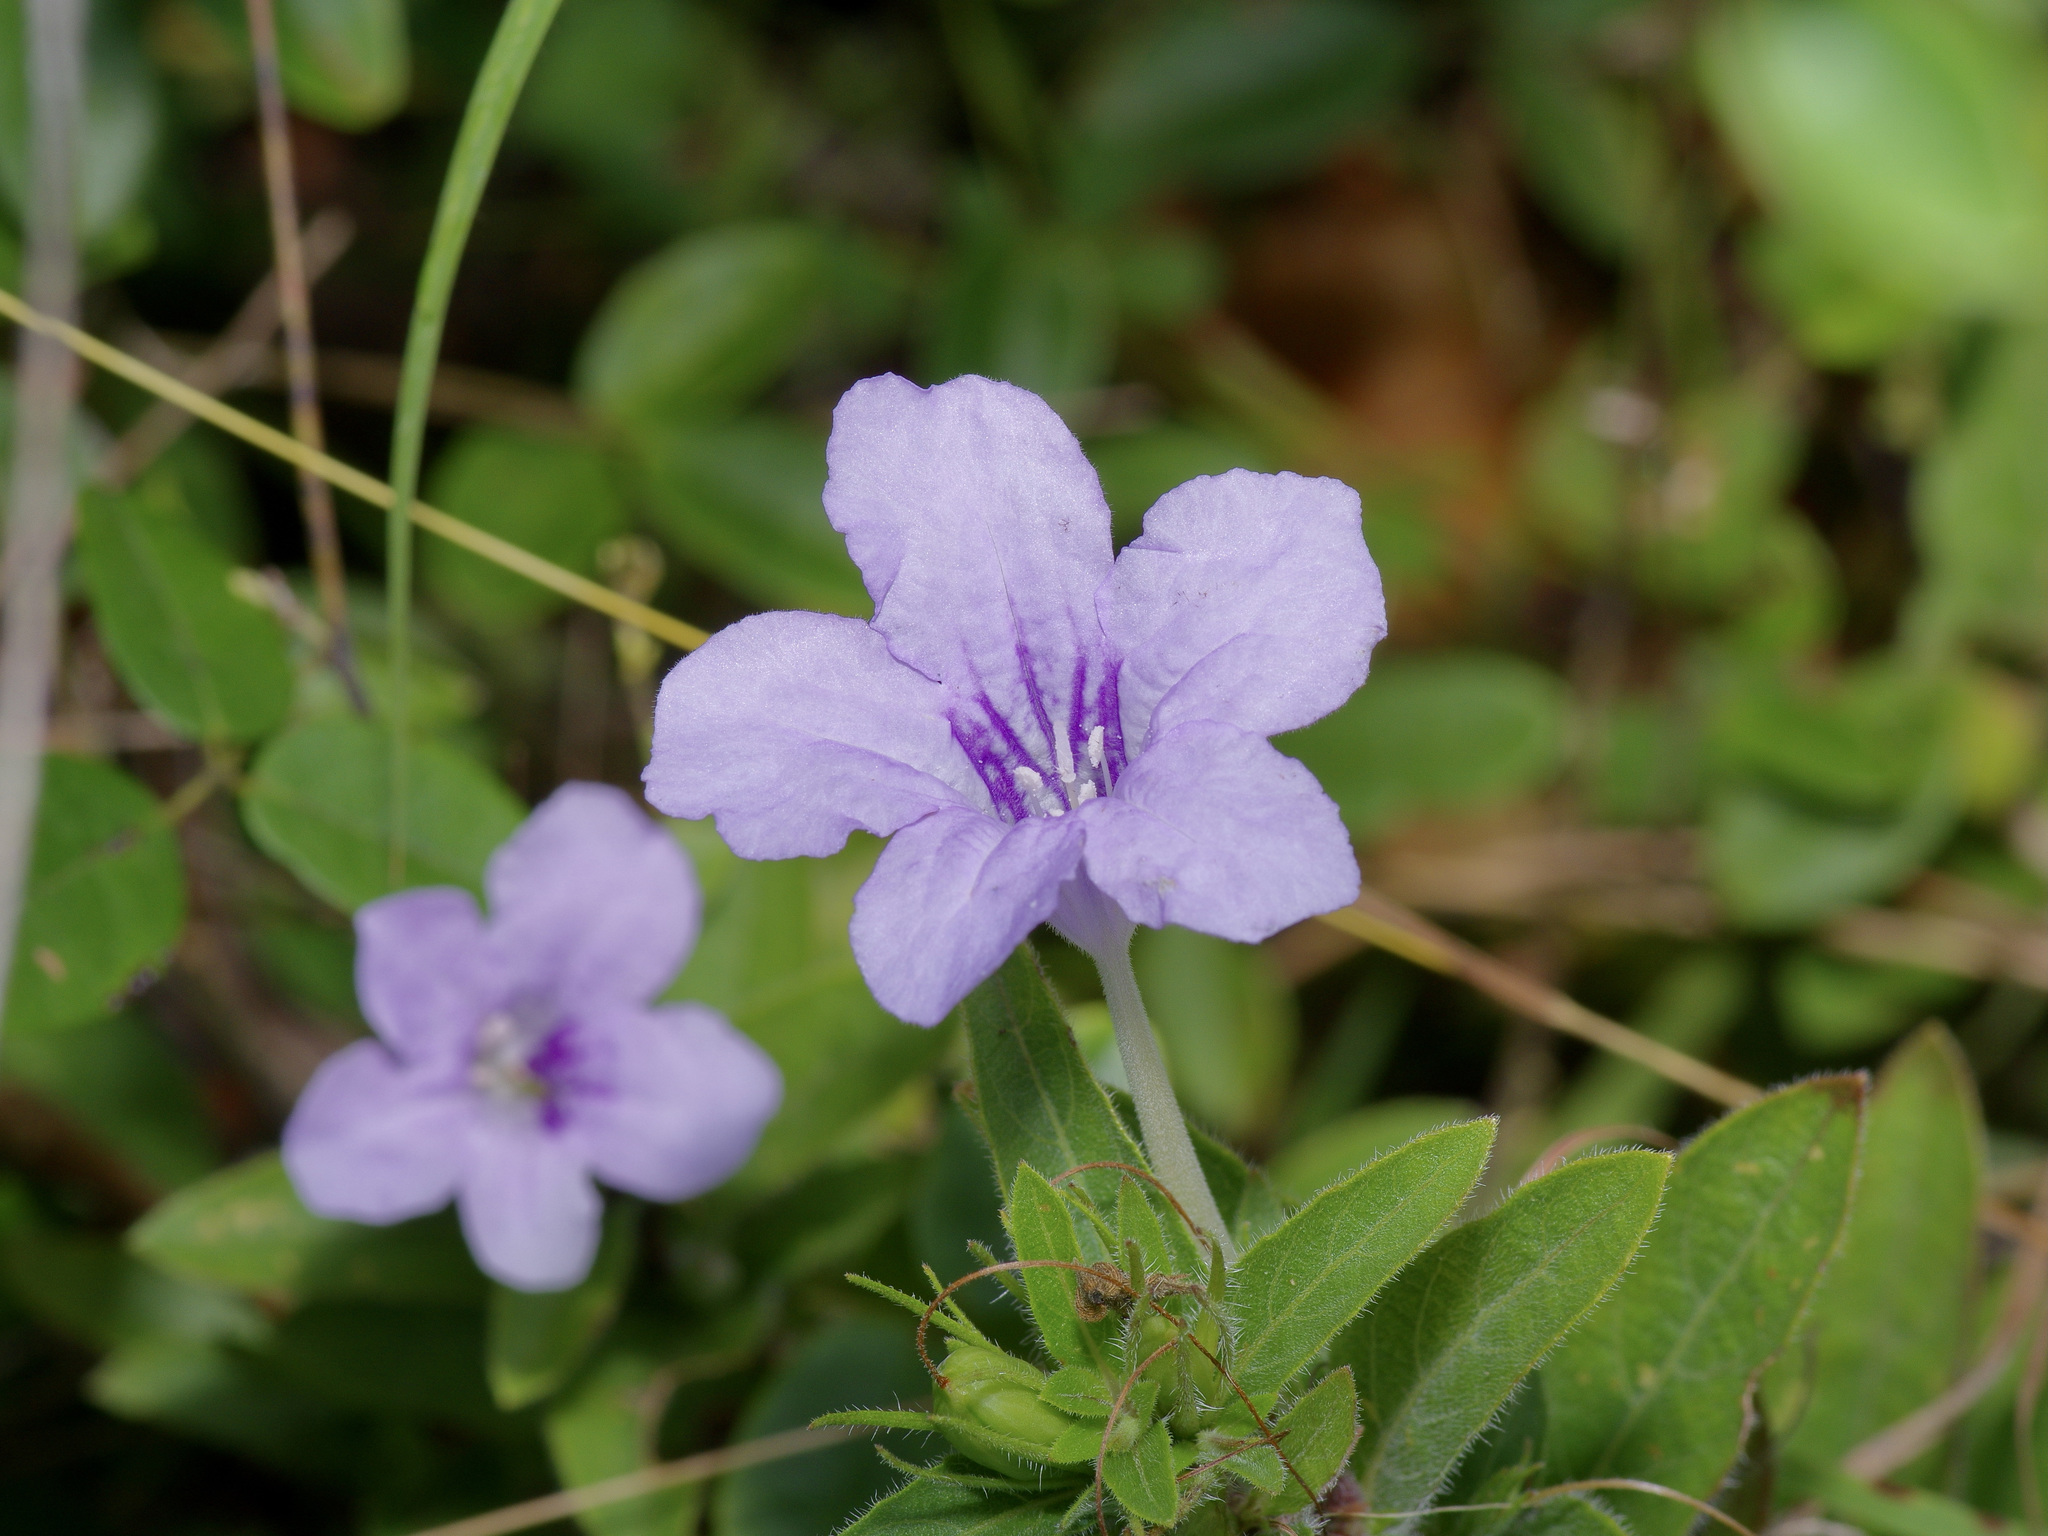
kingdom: Plantae
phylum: Tracheophyta
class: Magnoliopsida
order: Lamiales
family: Acanthaceae
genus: Ruellia
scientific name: Ruellia humilis
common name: Fringe-leaf ruellia
